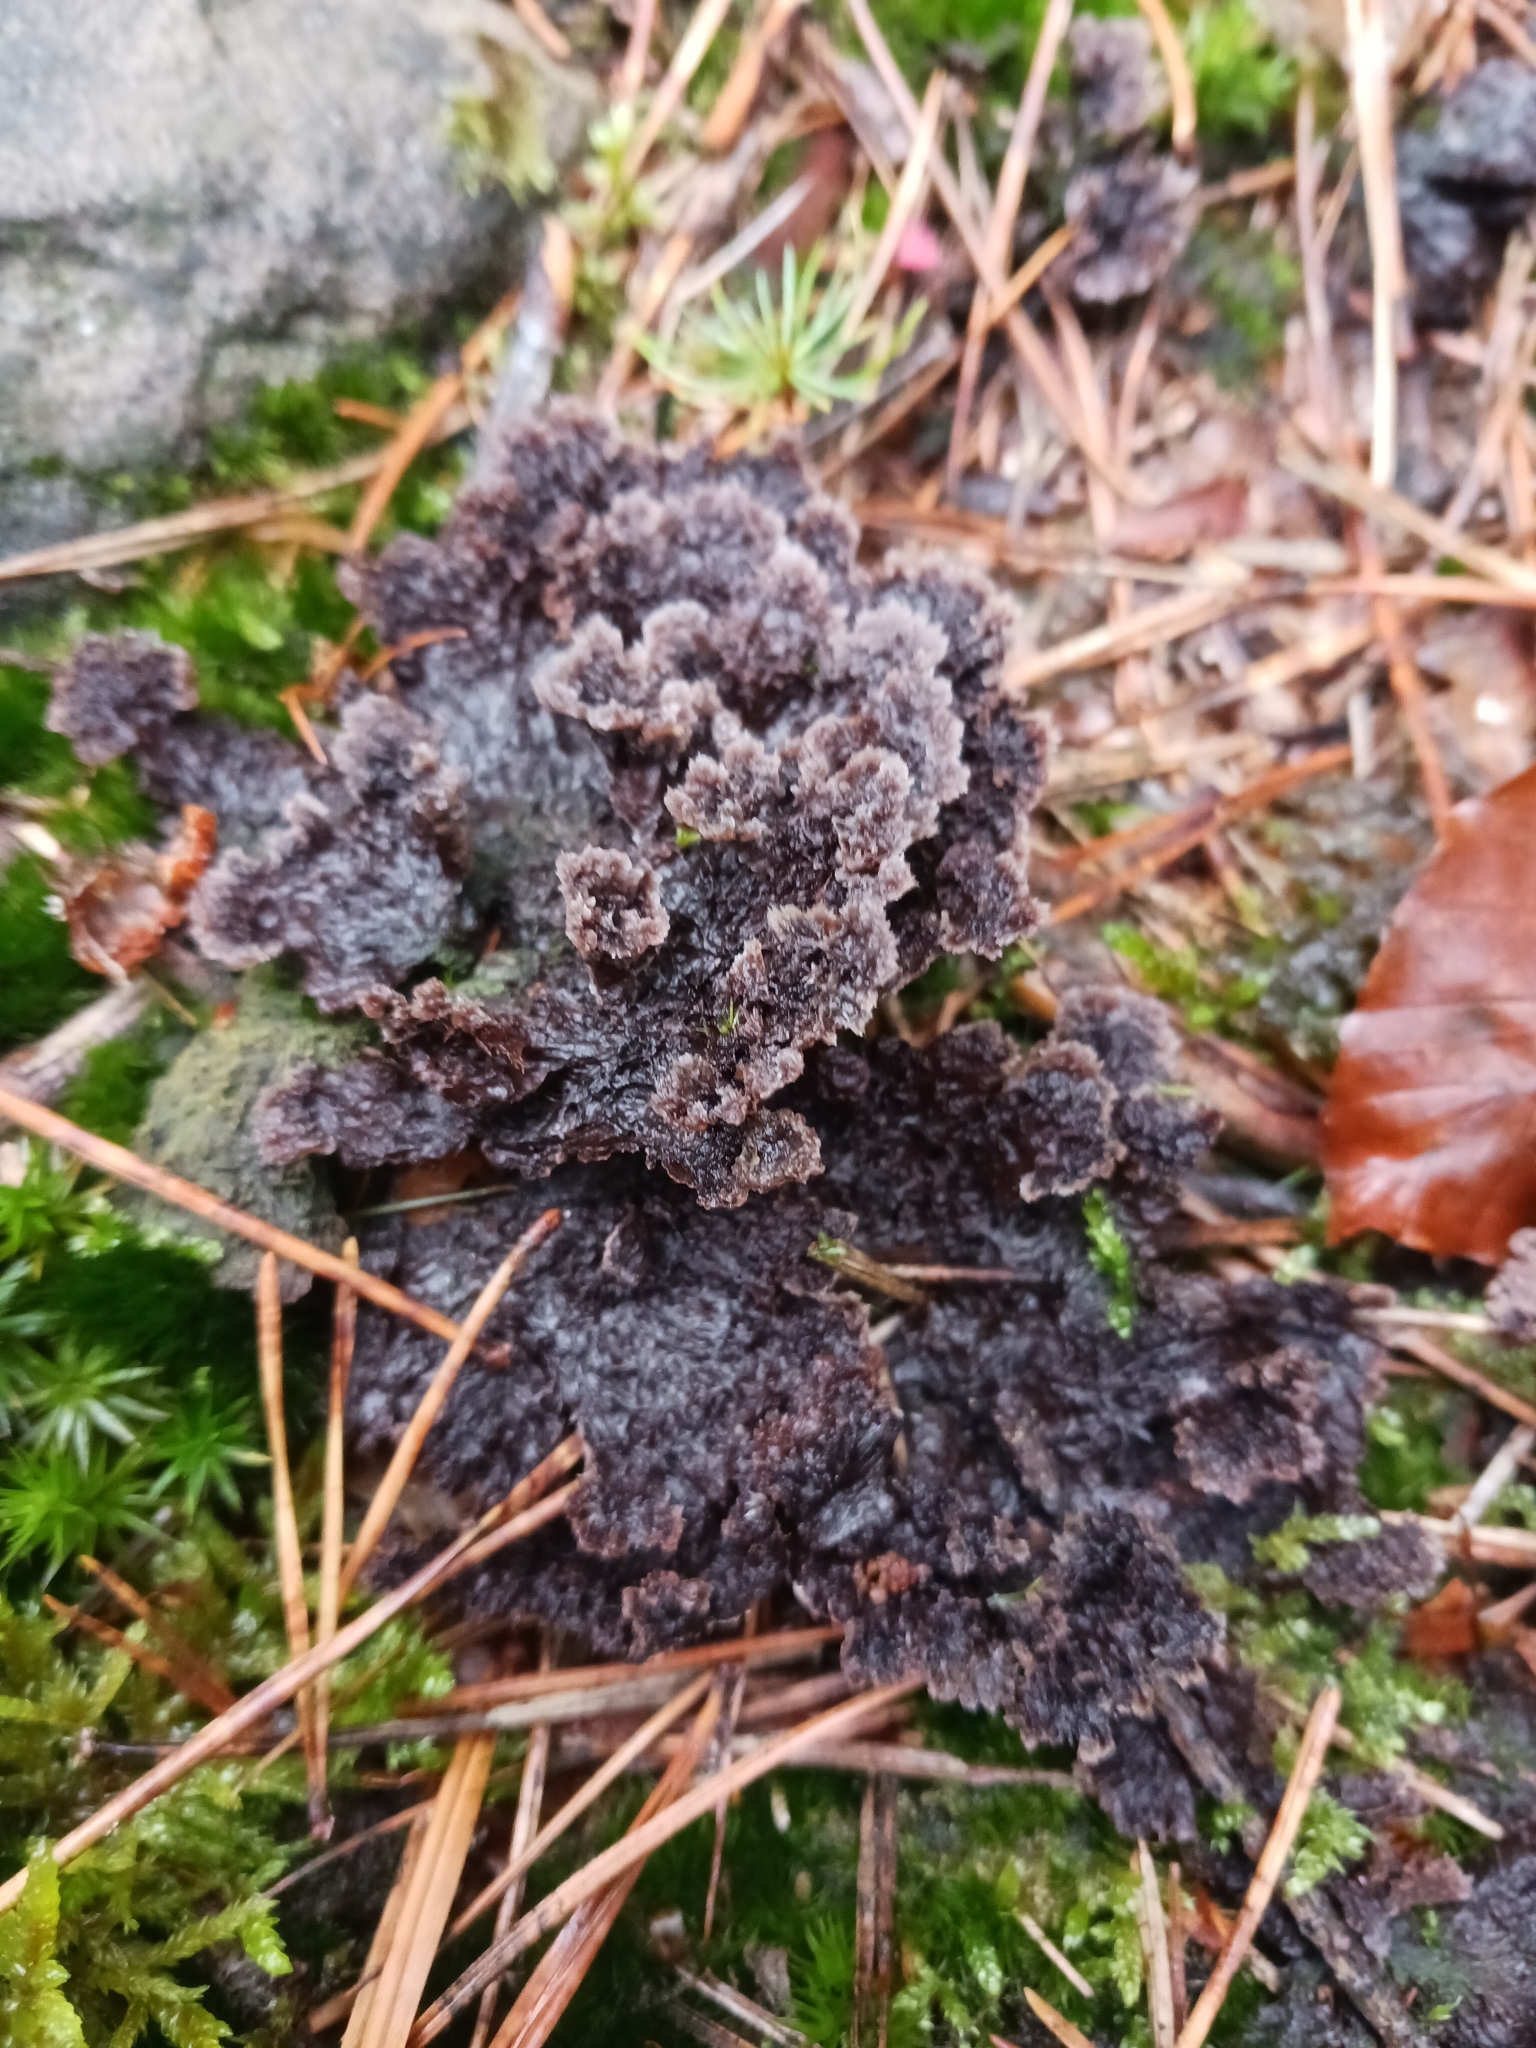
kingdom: Fungi
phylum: Basidiomycota
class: Agaricomycetes
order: Thelephorales
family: Thelephoraceae
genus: Thelephora
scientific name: Thelephora terrestris
